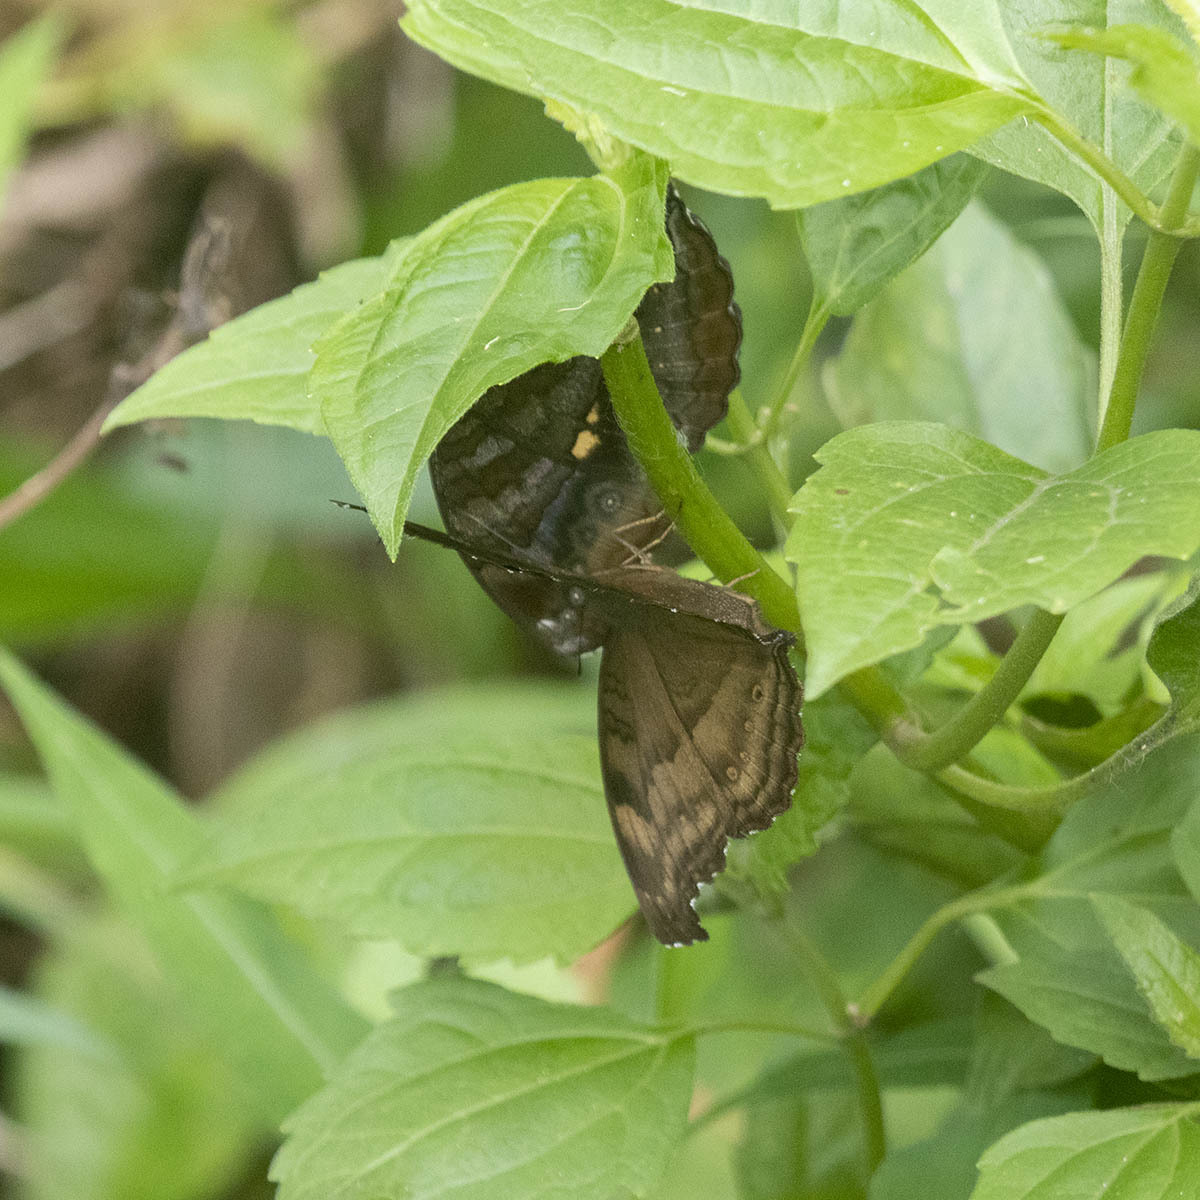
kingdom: Animalia
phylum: Arthropoda
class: Insecta
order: Lepidoptera
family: Nymphalidae
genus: Junonia
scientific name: Junonia iphita
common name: Chocolate pansy
